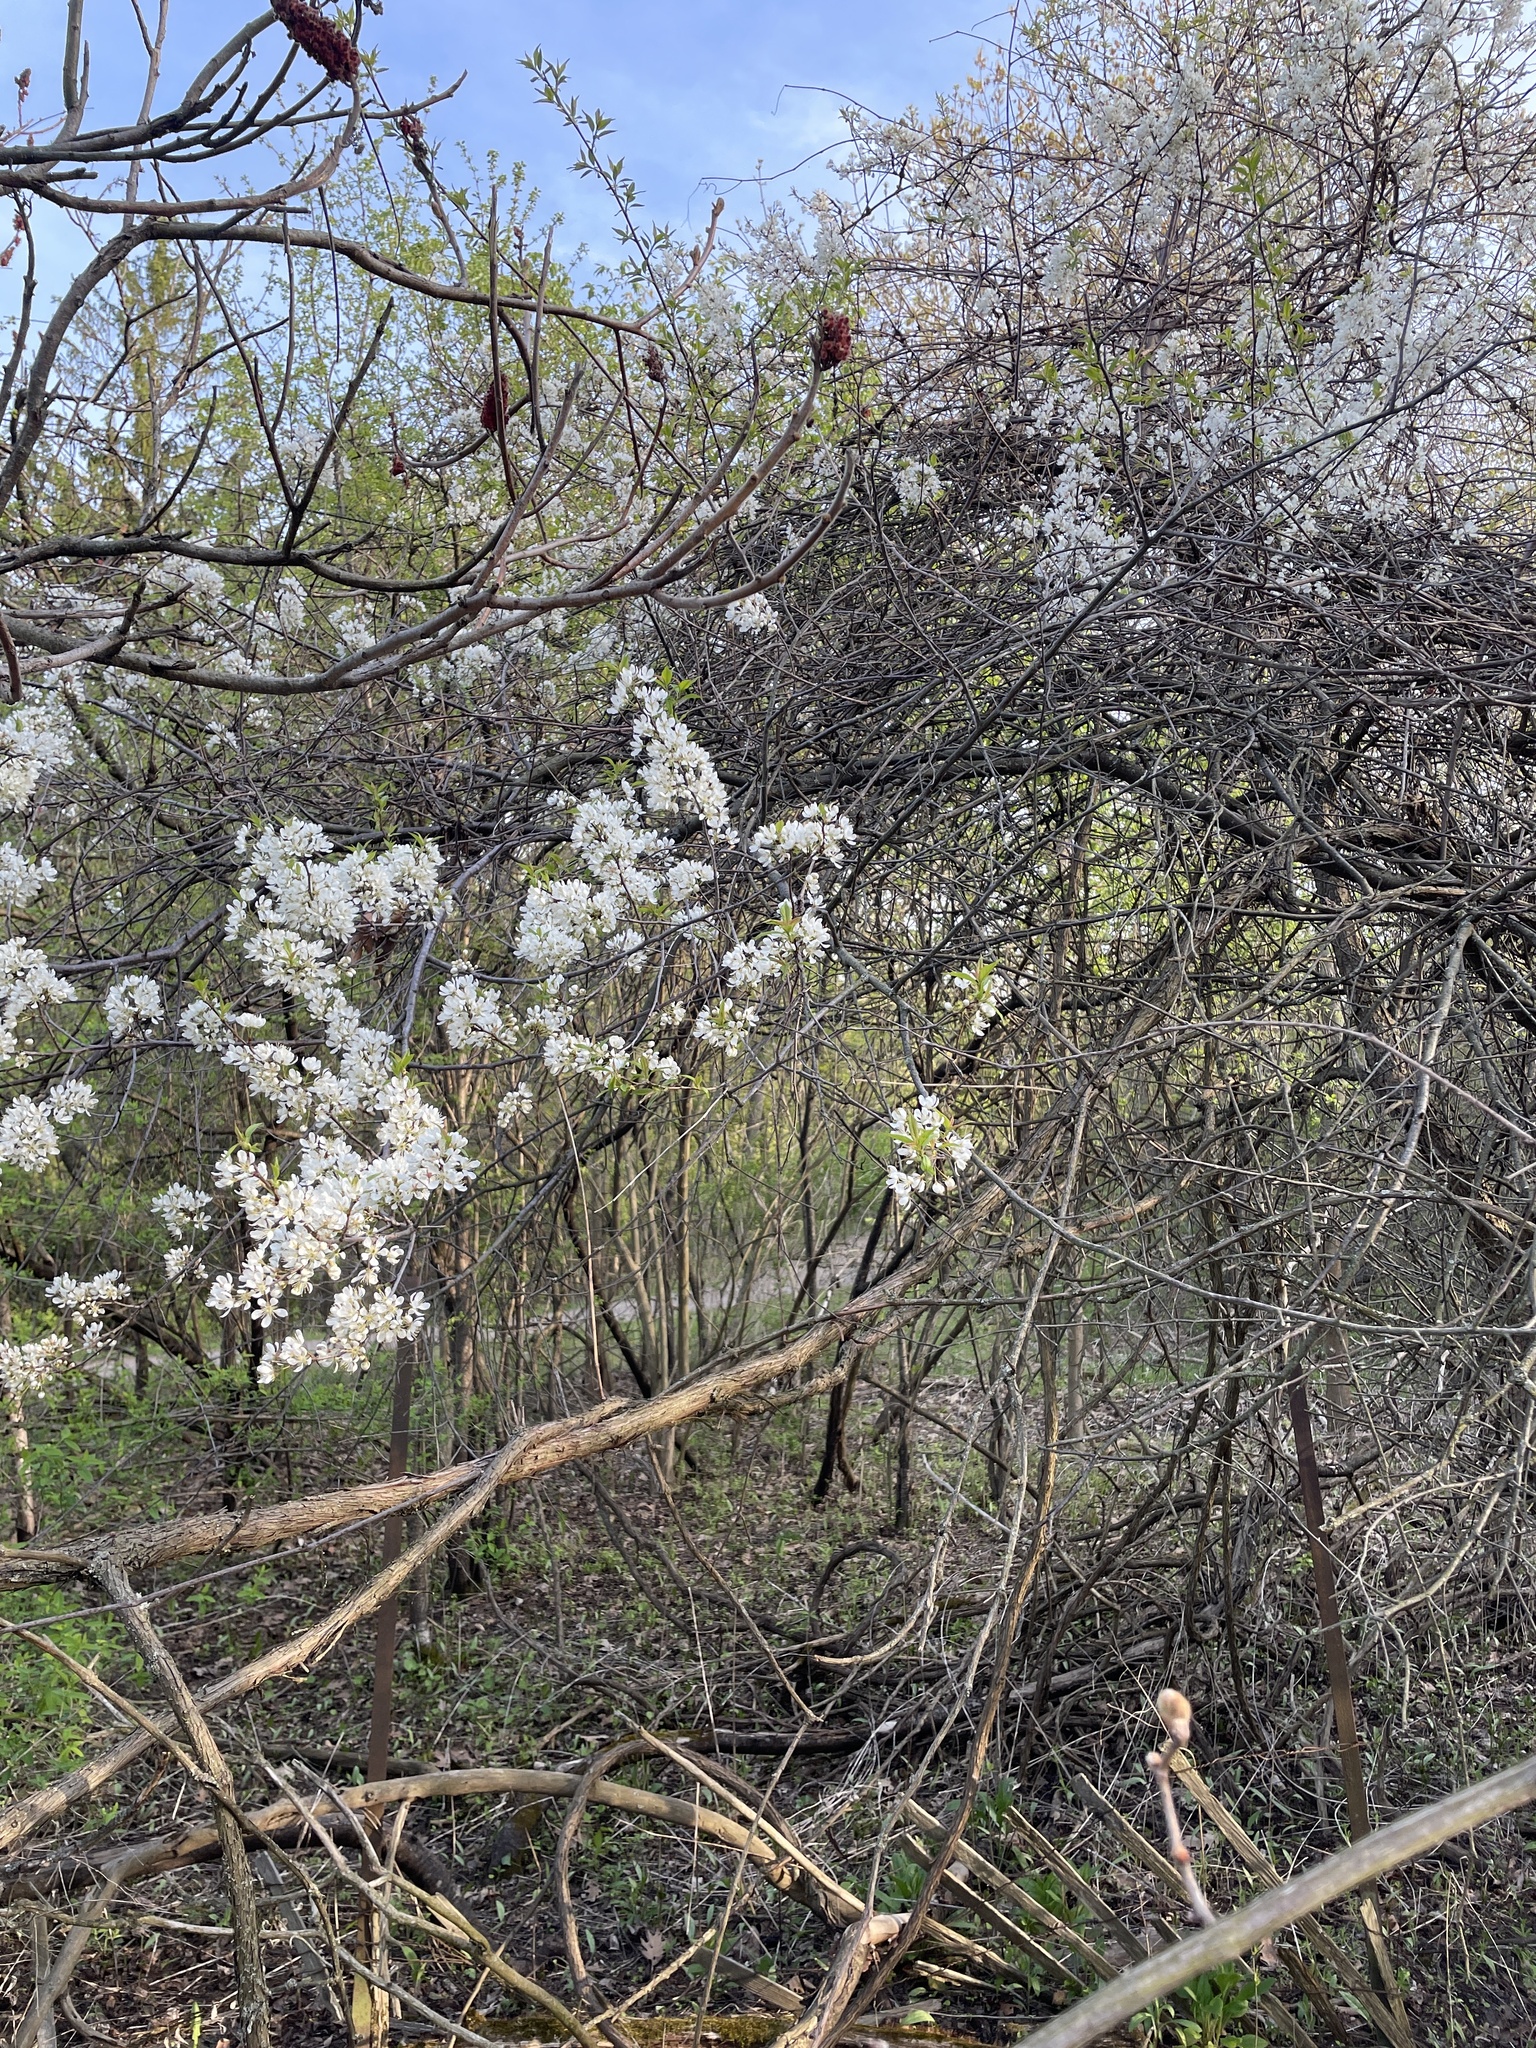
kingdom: Plantae
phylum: Tracheophyta
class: Magnoliopsida
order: Rosales
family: Rosaceae
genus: Prunus
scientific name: Prunus americana
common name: American plum
